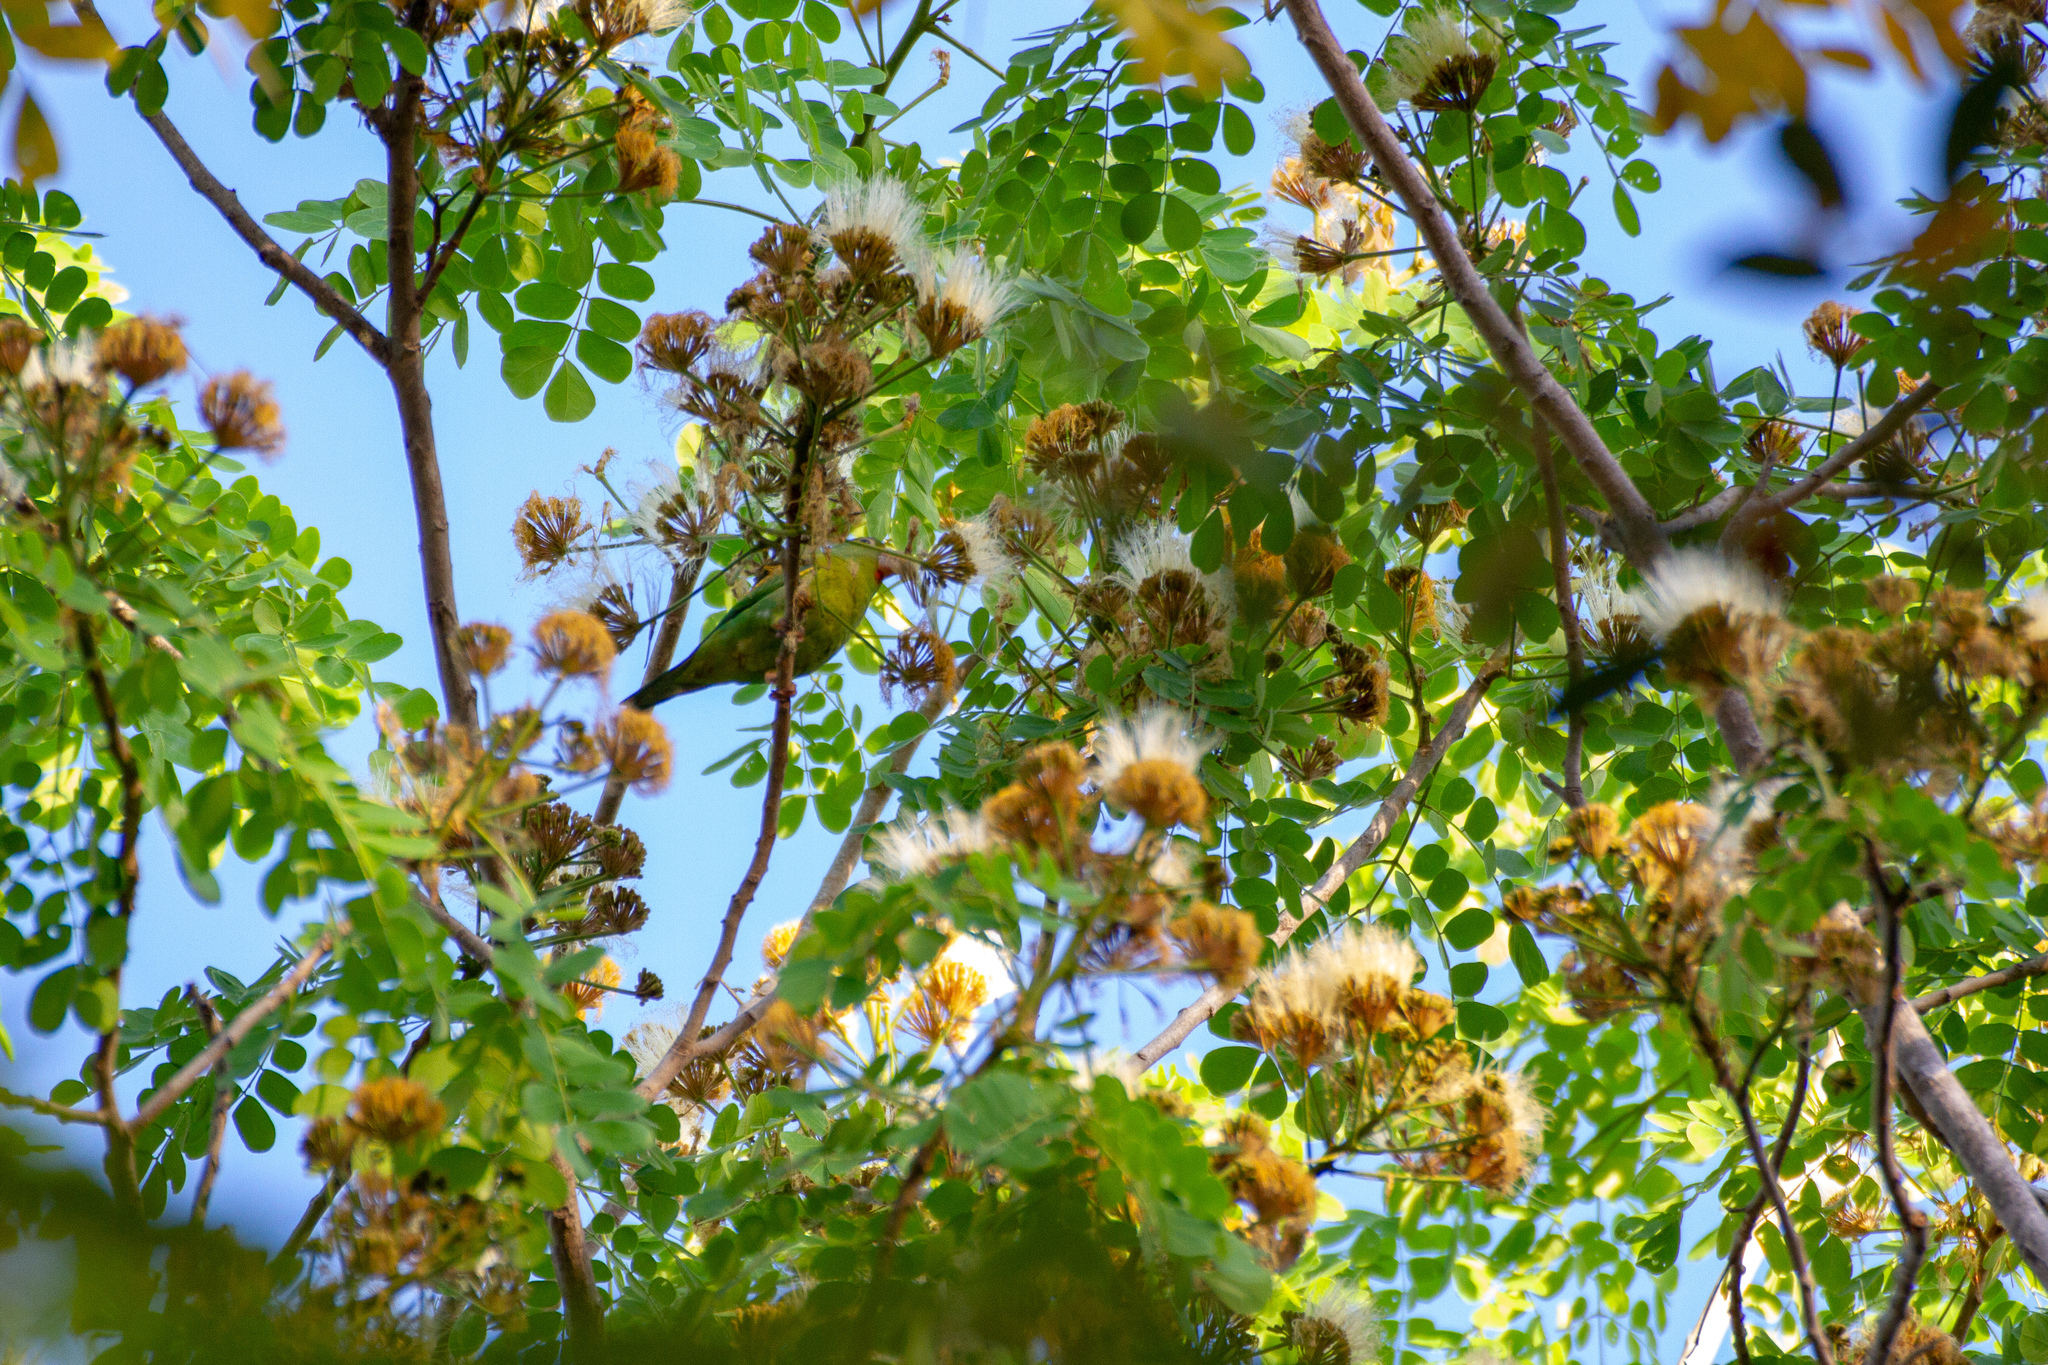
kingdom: Animalia
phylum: Chordata
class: Aves
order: Psittaciformes
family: Psittacidae
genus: Brotogeris
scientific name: Brotogeris jugularis
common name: Orange-chinned parakeet
